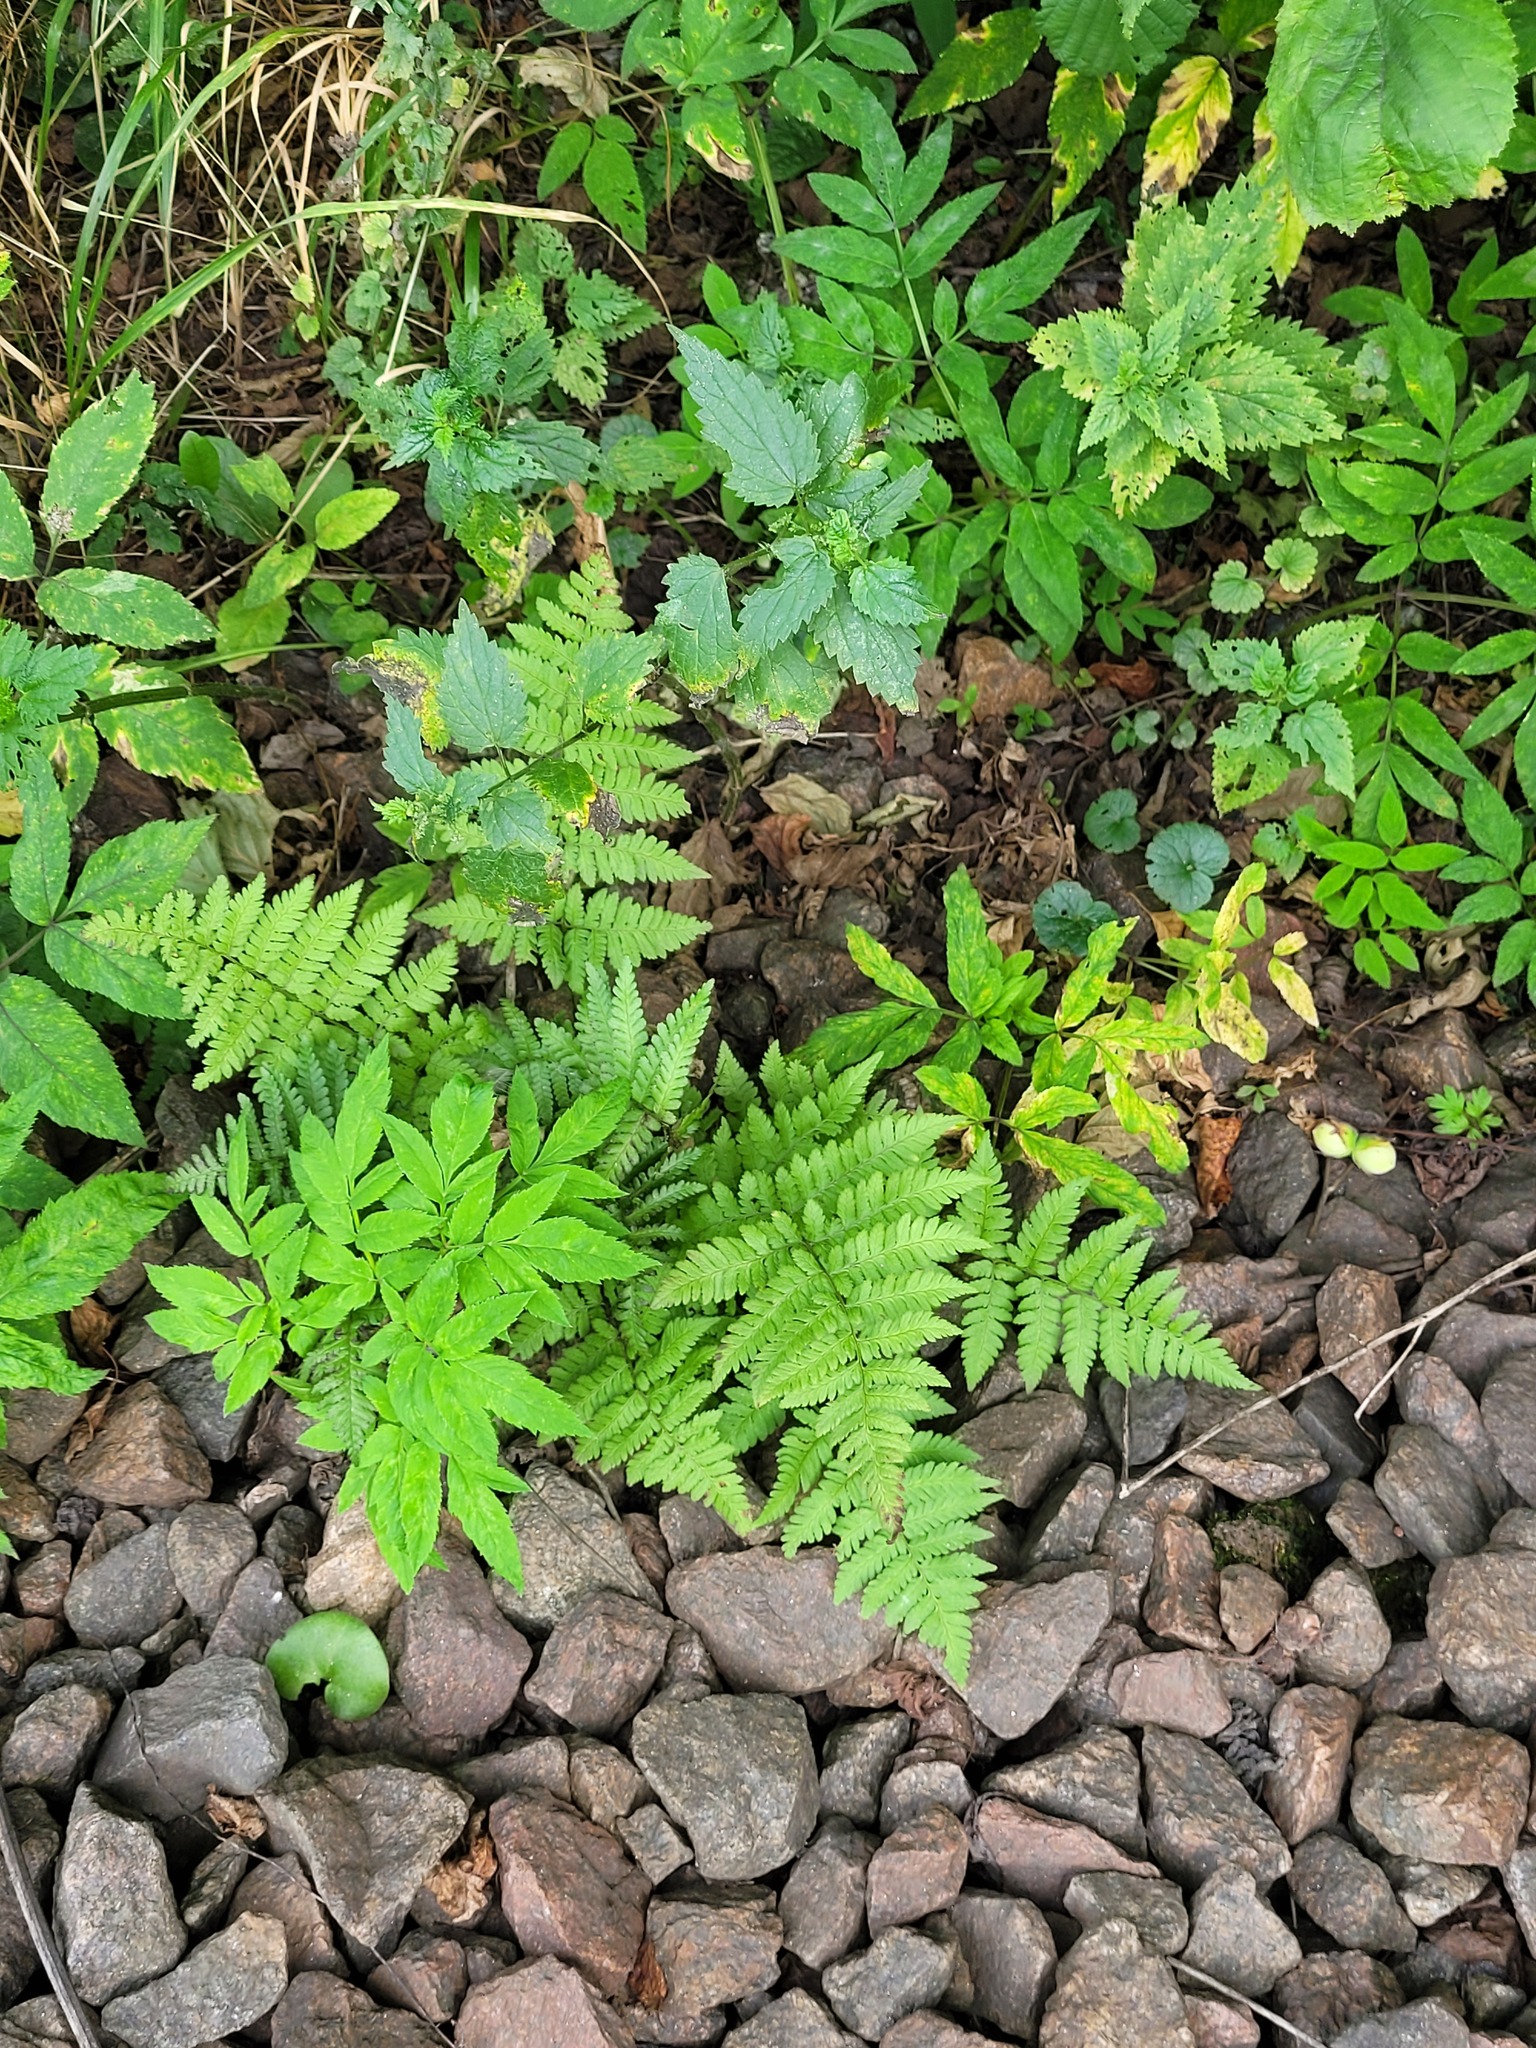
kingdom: Plantae
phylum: Tracheophyta
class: Polypodiopsida
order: Polypodiales
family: Dryopteridaceae
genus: Dryopteris
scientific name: Dryopteris carthusiana
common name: Narrow buckler-fern
